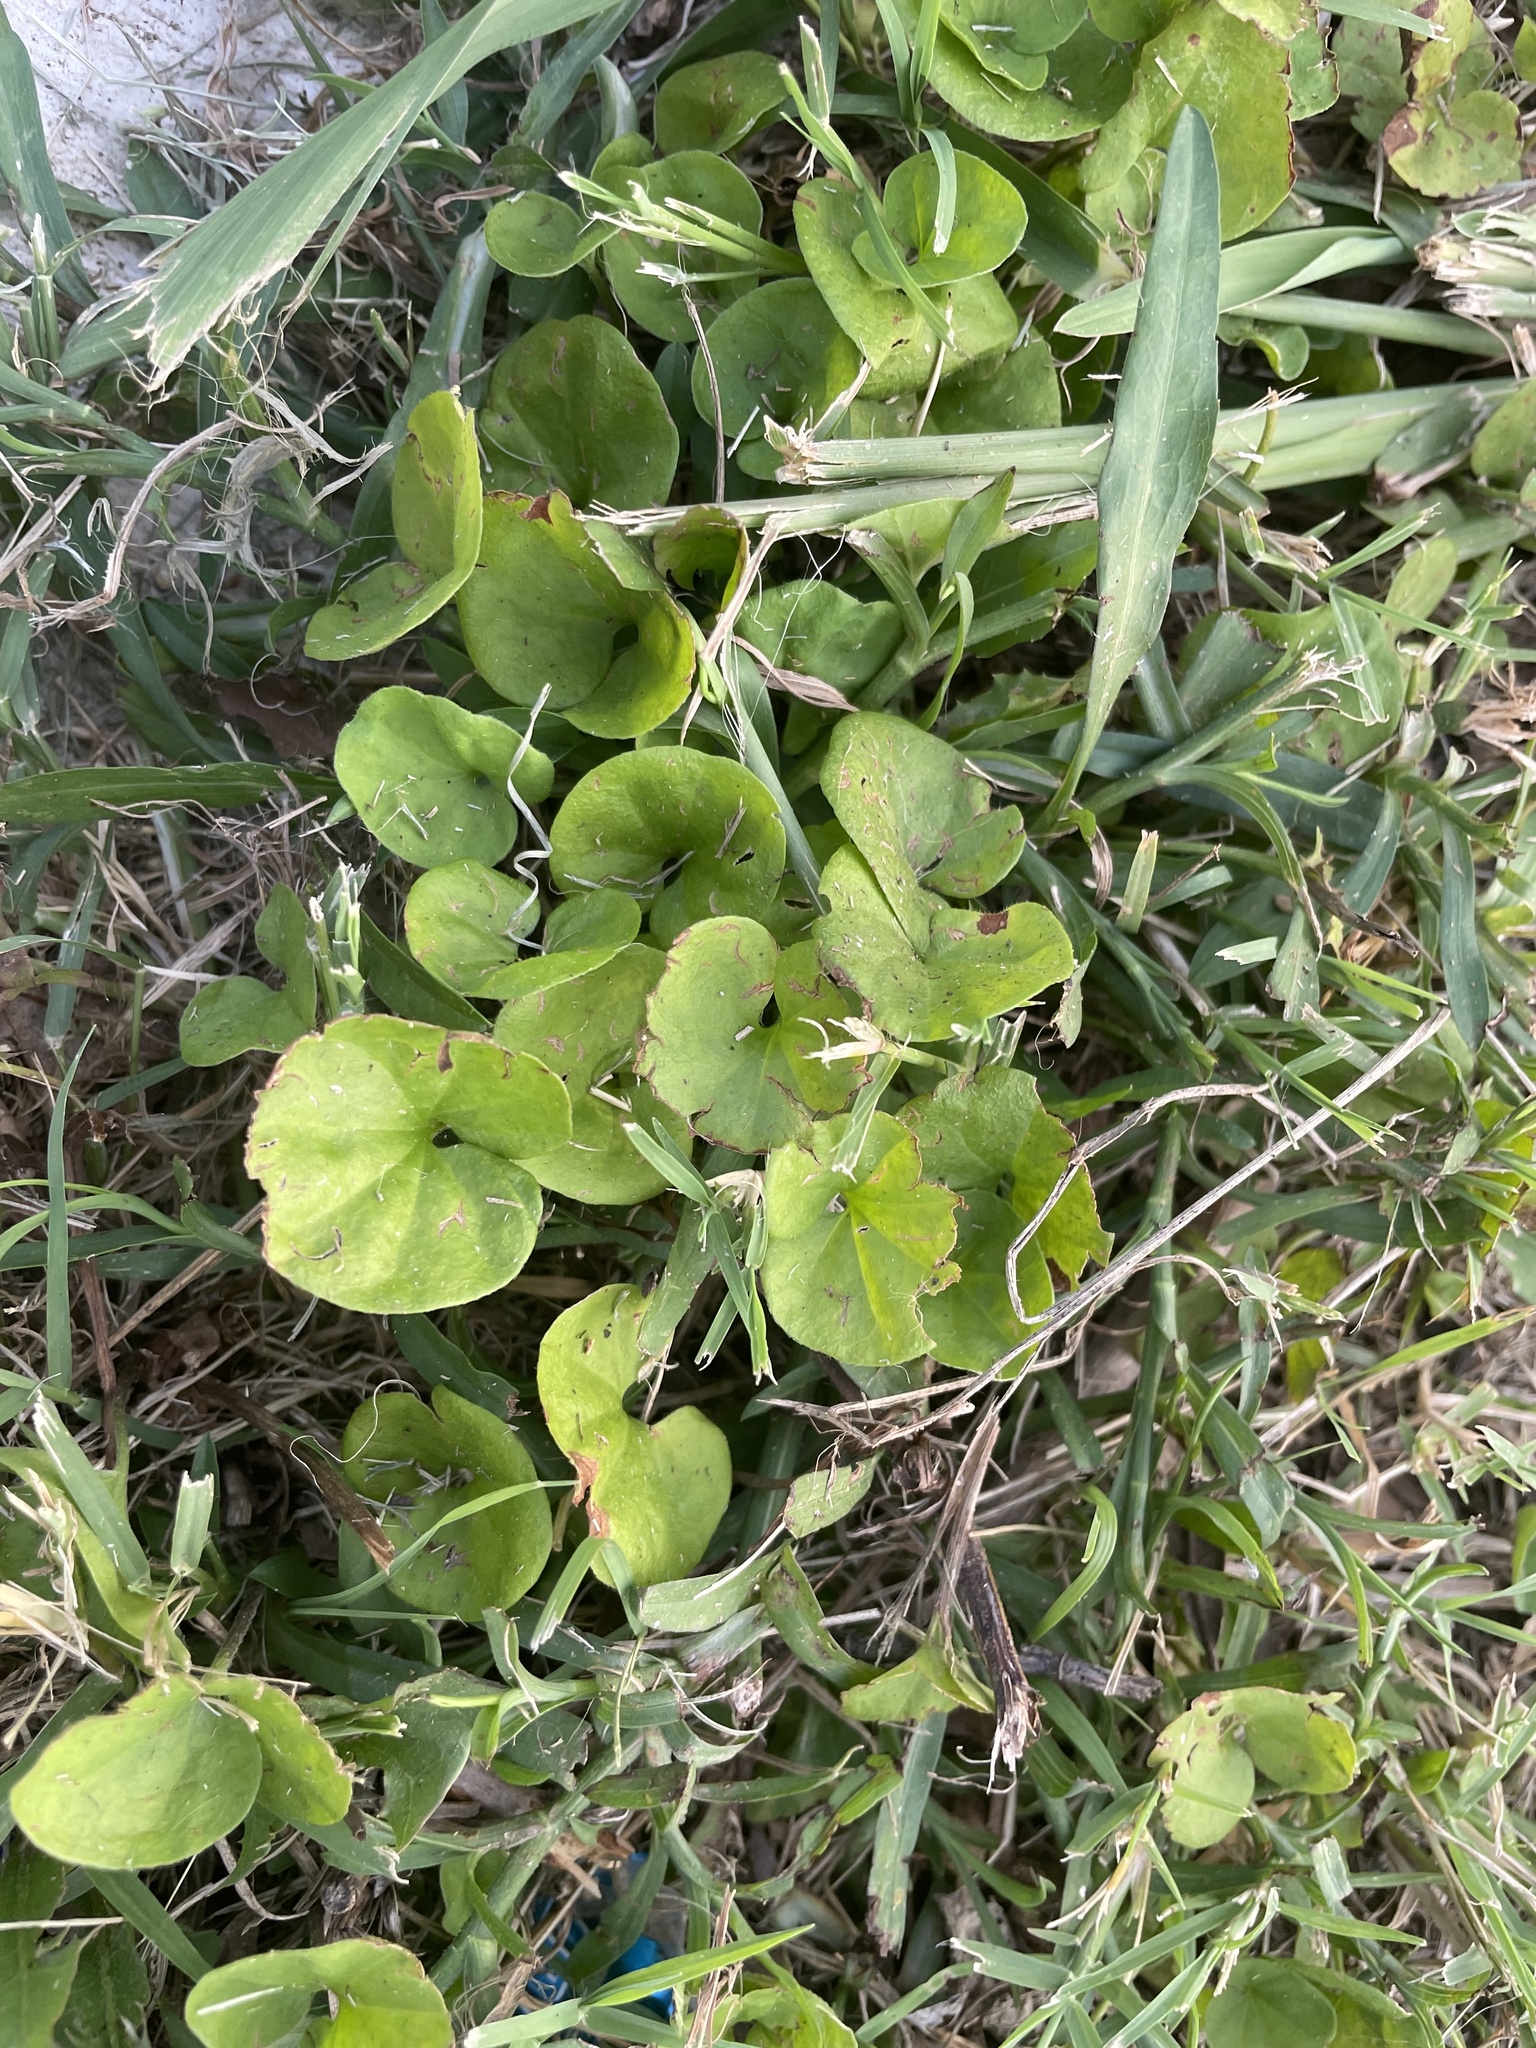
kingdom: Plantae
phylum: Tracheophyta
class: Magnoliopsida
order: Solanales
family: Convolvulaceae
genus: Dichondra
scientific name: Dichondra carolinensis
